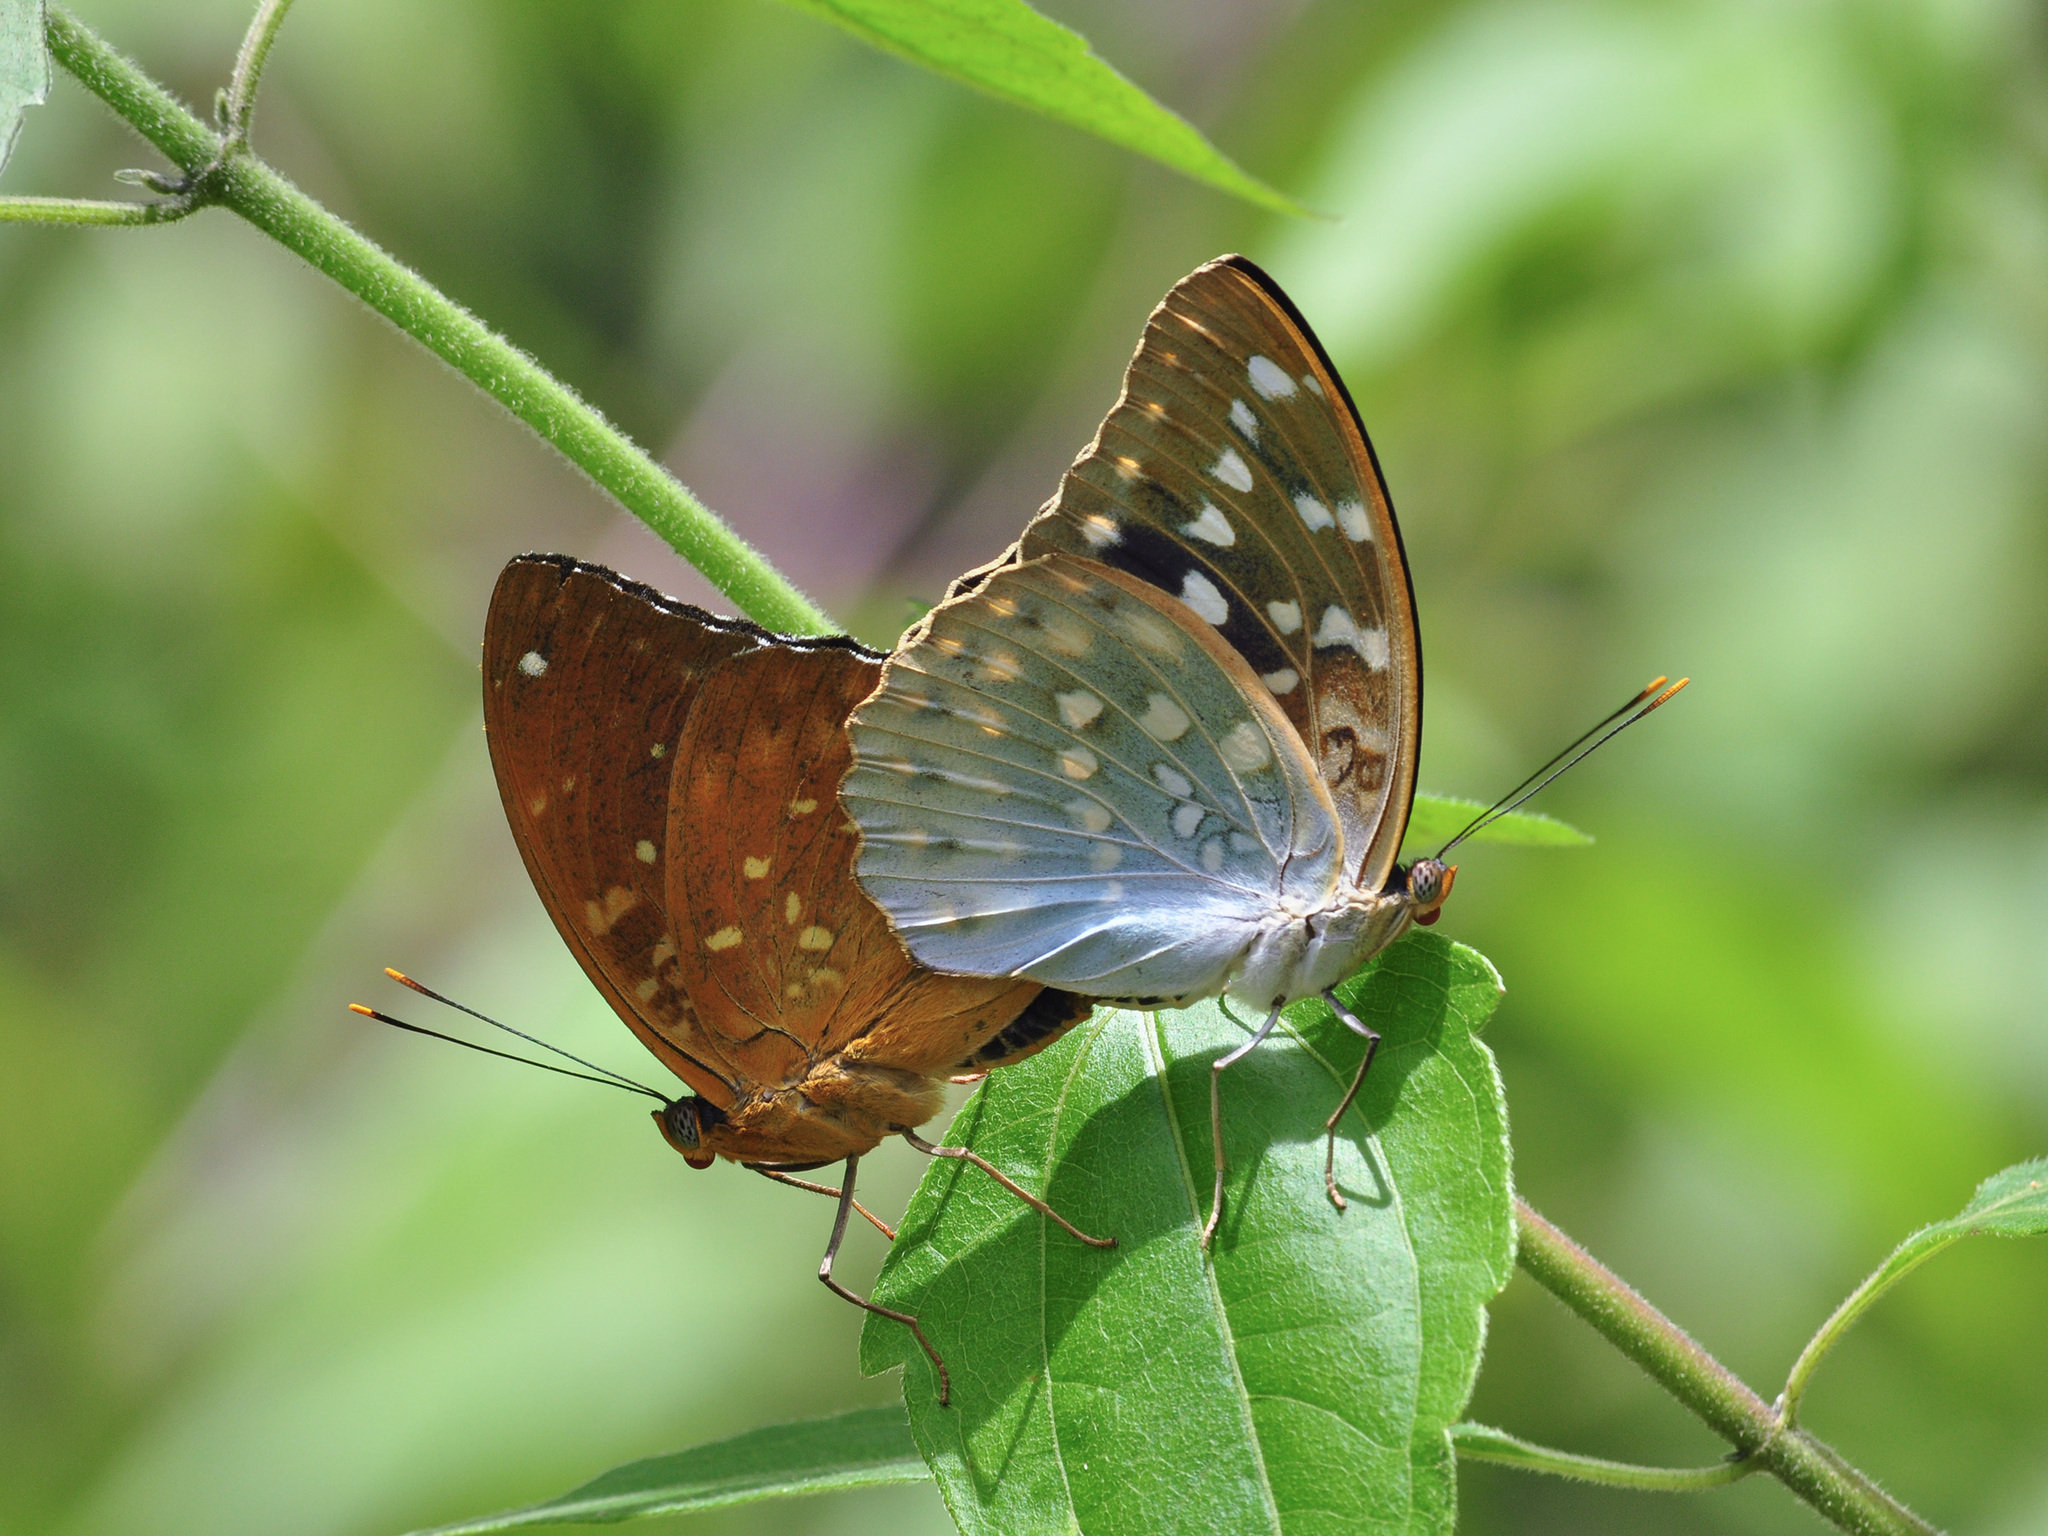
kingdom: Animalia
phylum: Arthropoda
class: Insecta
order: Lepidoptera
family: Nymphalidae
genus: Lexias
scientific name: Lexias pardalis
